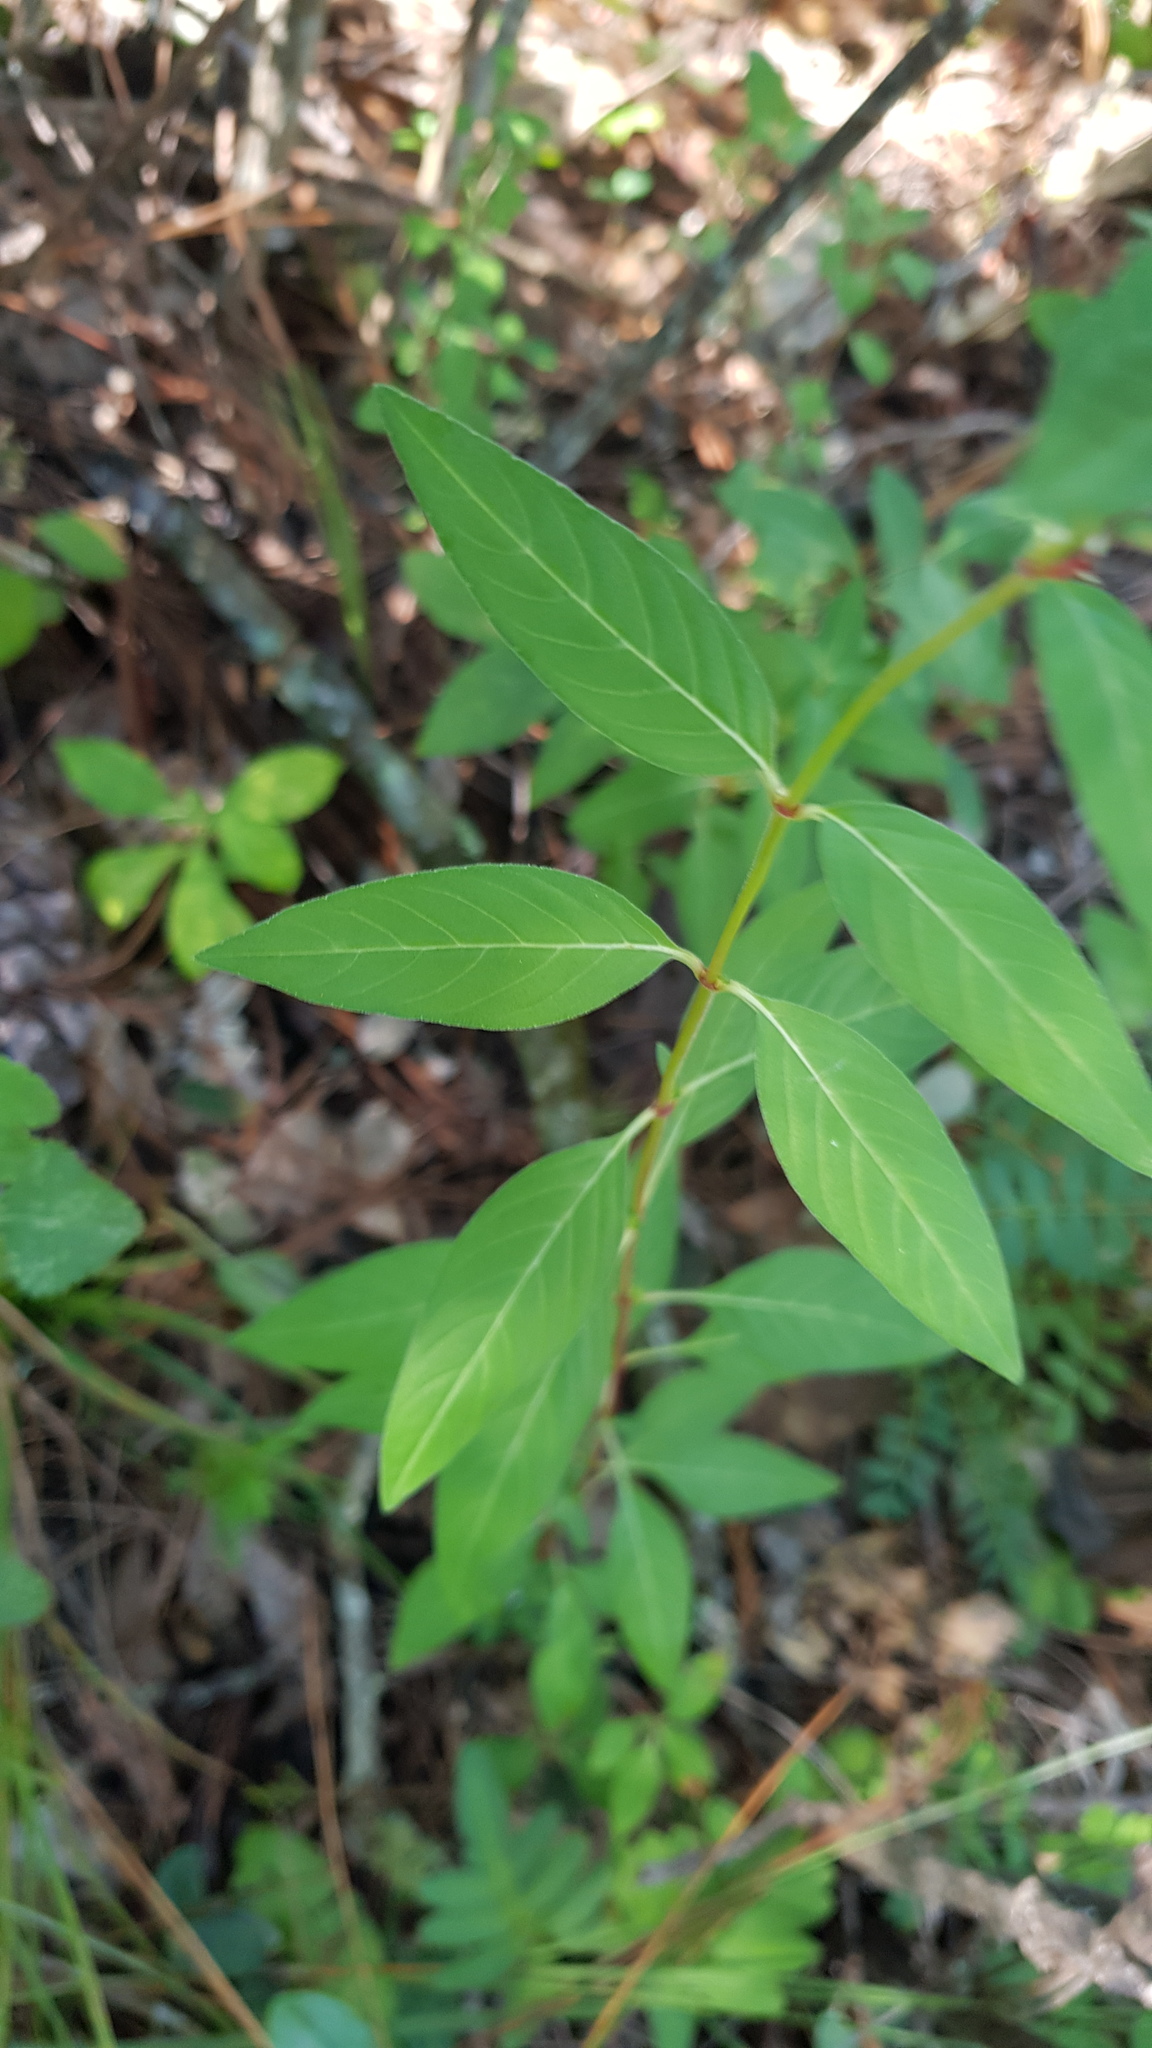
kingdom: Plantae
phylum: Tracheophyta
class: Magnoliopsida
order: Myrtales
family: Lythraceae
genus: Cuphea
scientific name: Cuphea aequipetala
